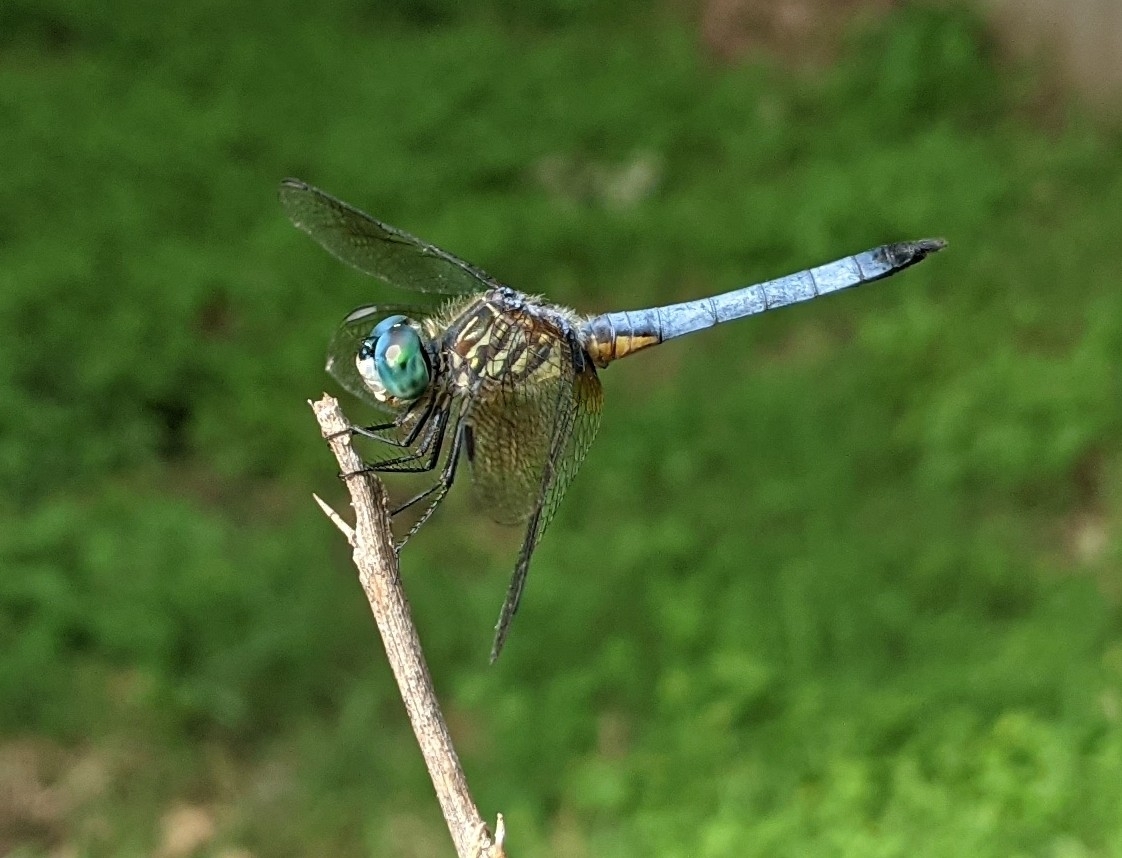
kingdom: Animalia
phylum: Arthropoda
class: Insecta
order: Odonata
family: Libellulidae
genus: Pachydiplax
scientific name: Pachydiplax longipennis
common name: Blue dasher
